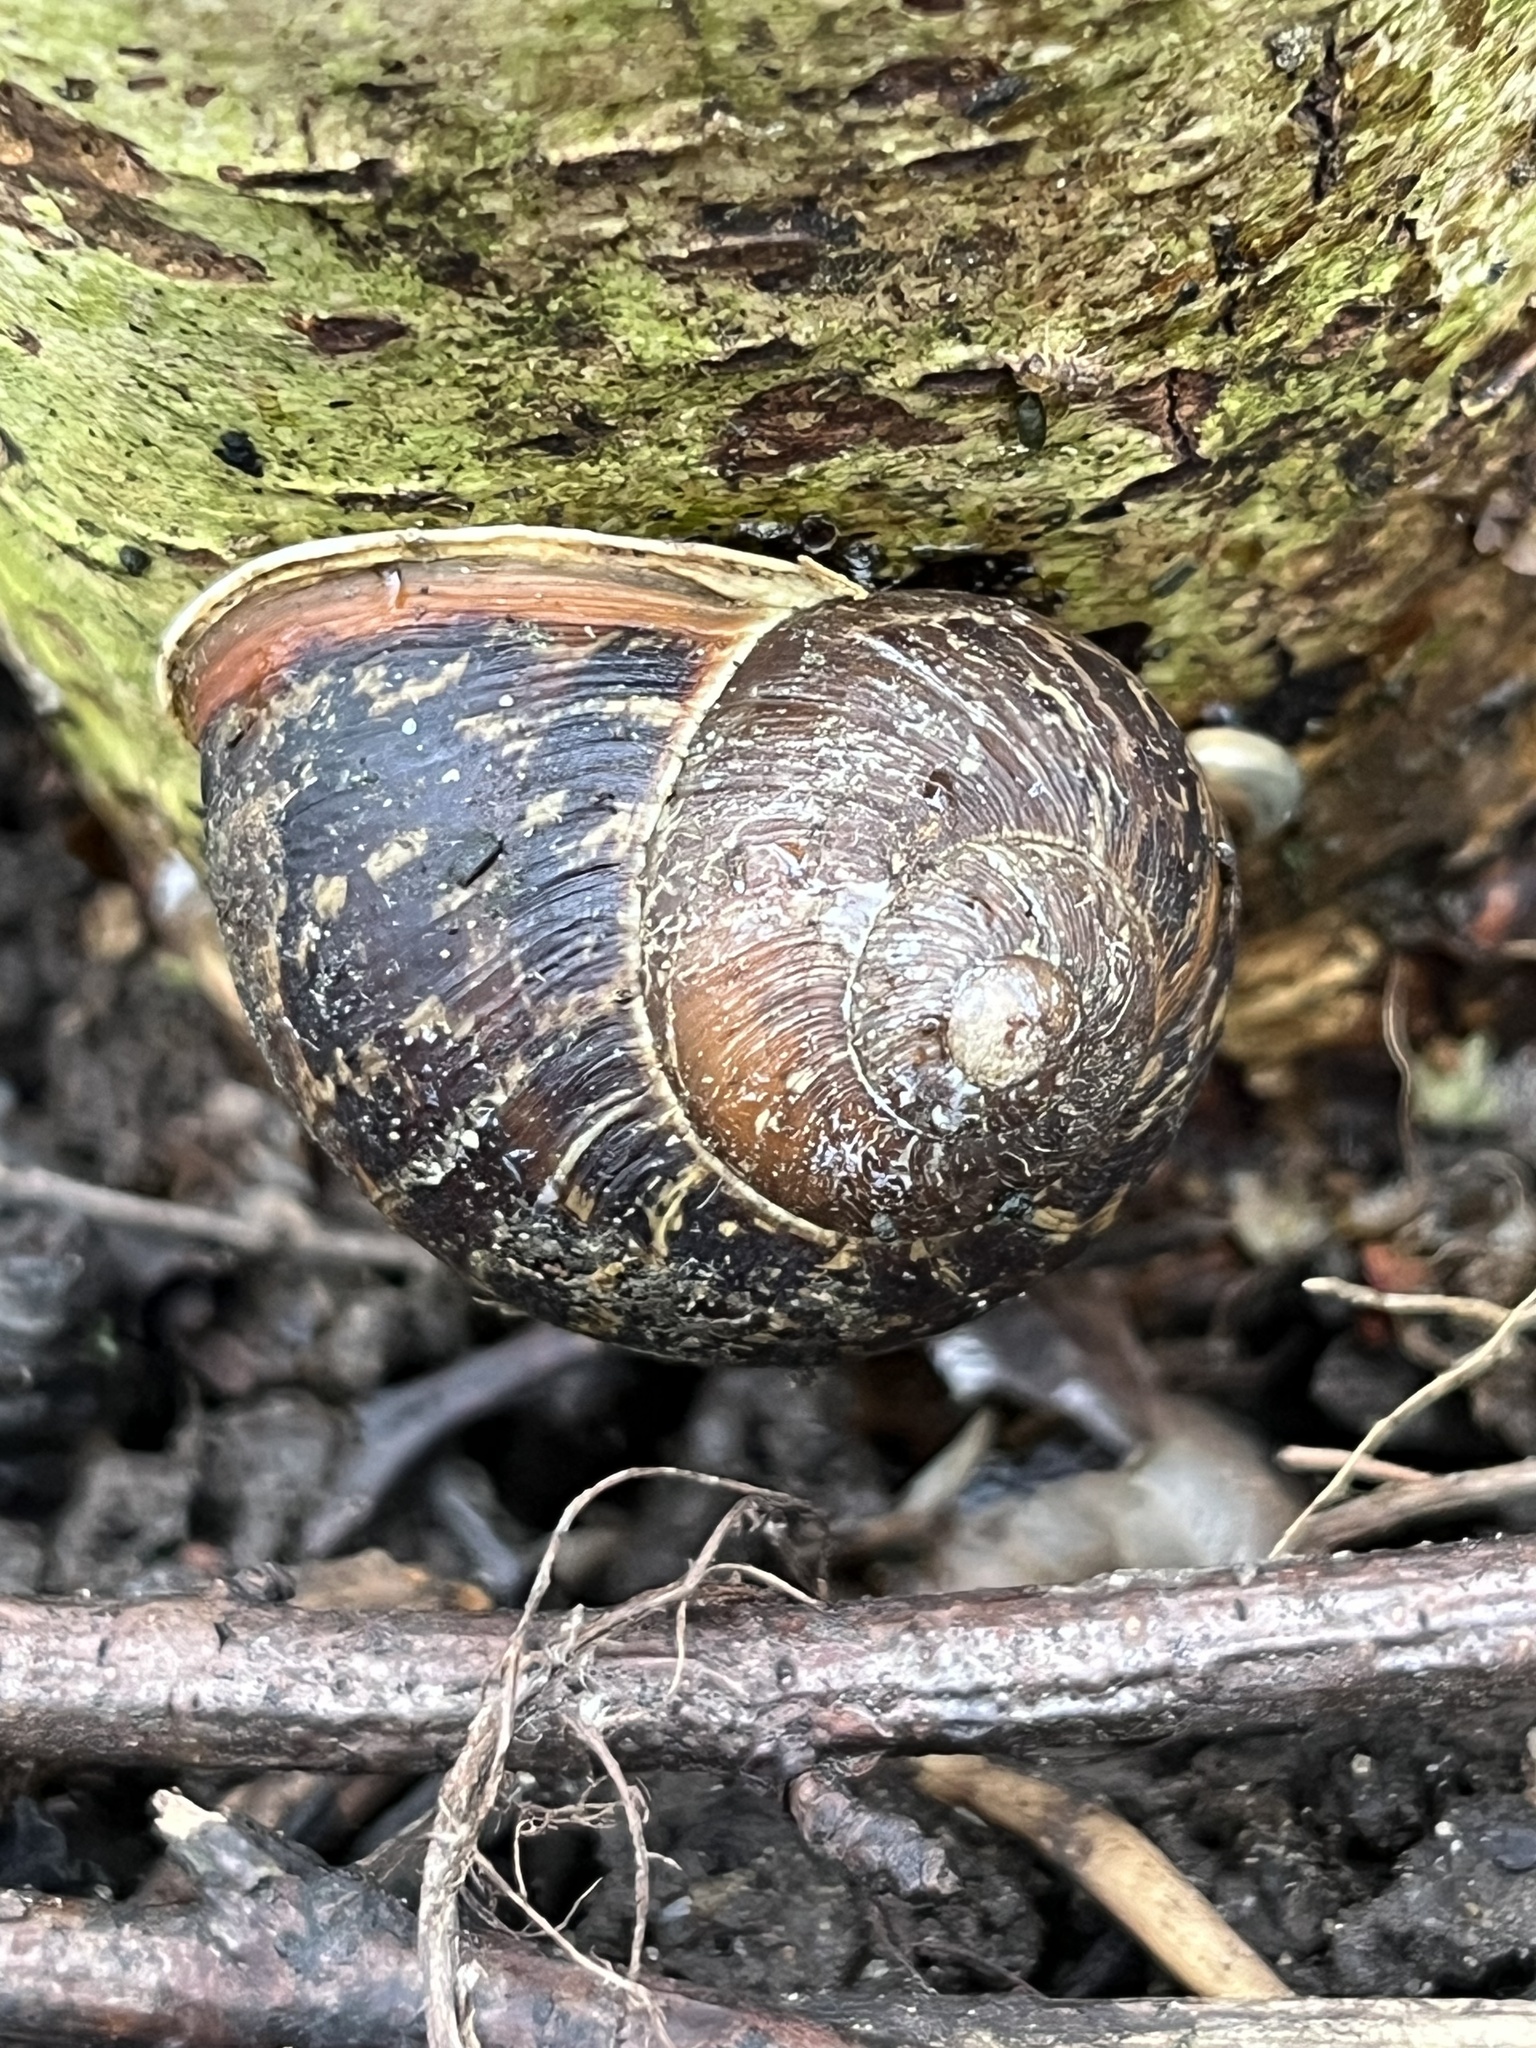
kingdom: Animalia
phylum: Mollusca
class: Gastropoda
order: Stylommatophora
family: Helicidae
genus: Cornu
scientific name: Cornu aspersum
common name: Brown garden snail
